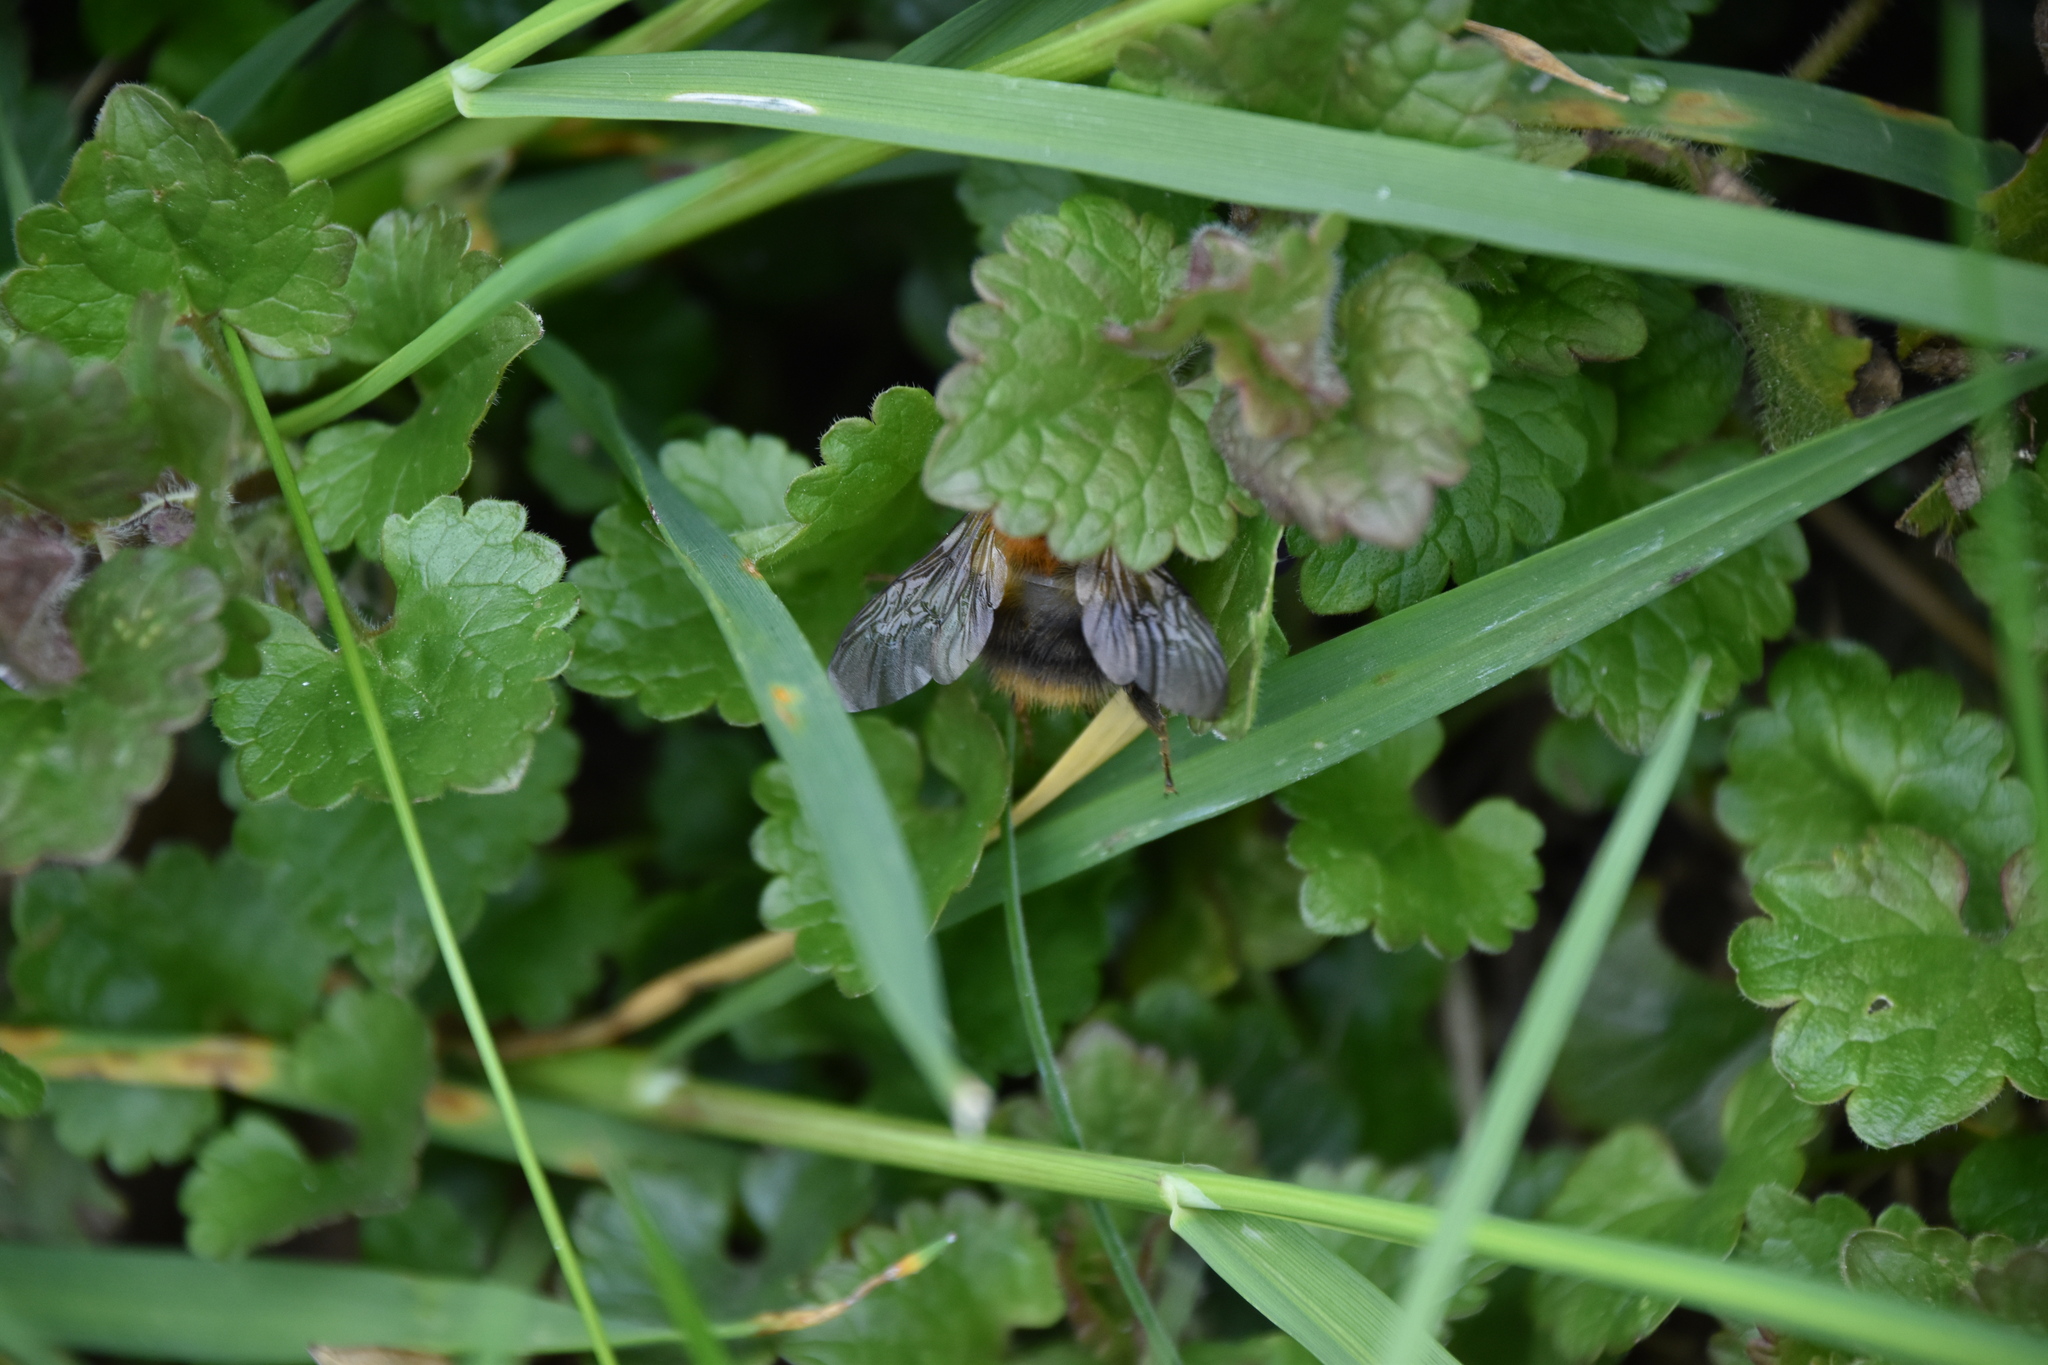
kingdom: Animalia
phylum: Arthropoda
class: Insecta
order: Hymenoptera
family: Apidae
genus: Bombus
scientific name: Bombus pascuorum
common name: Common carder bee
